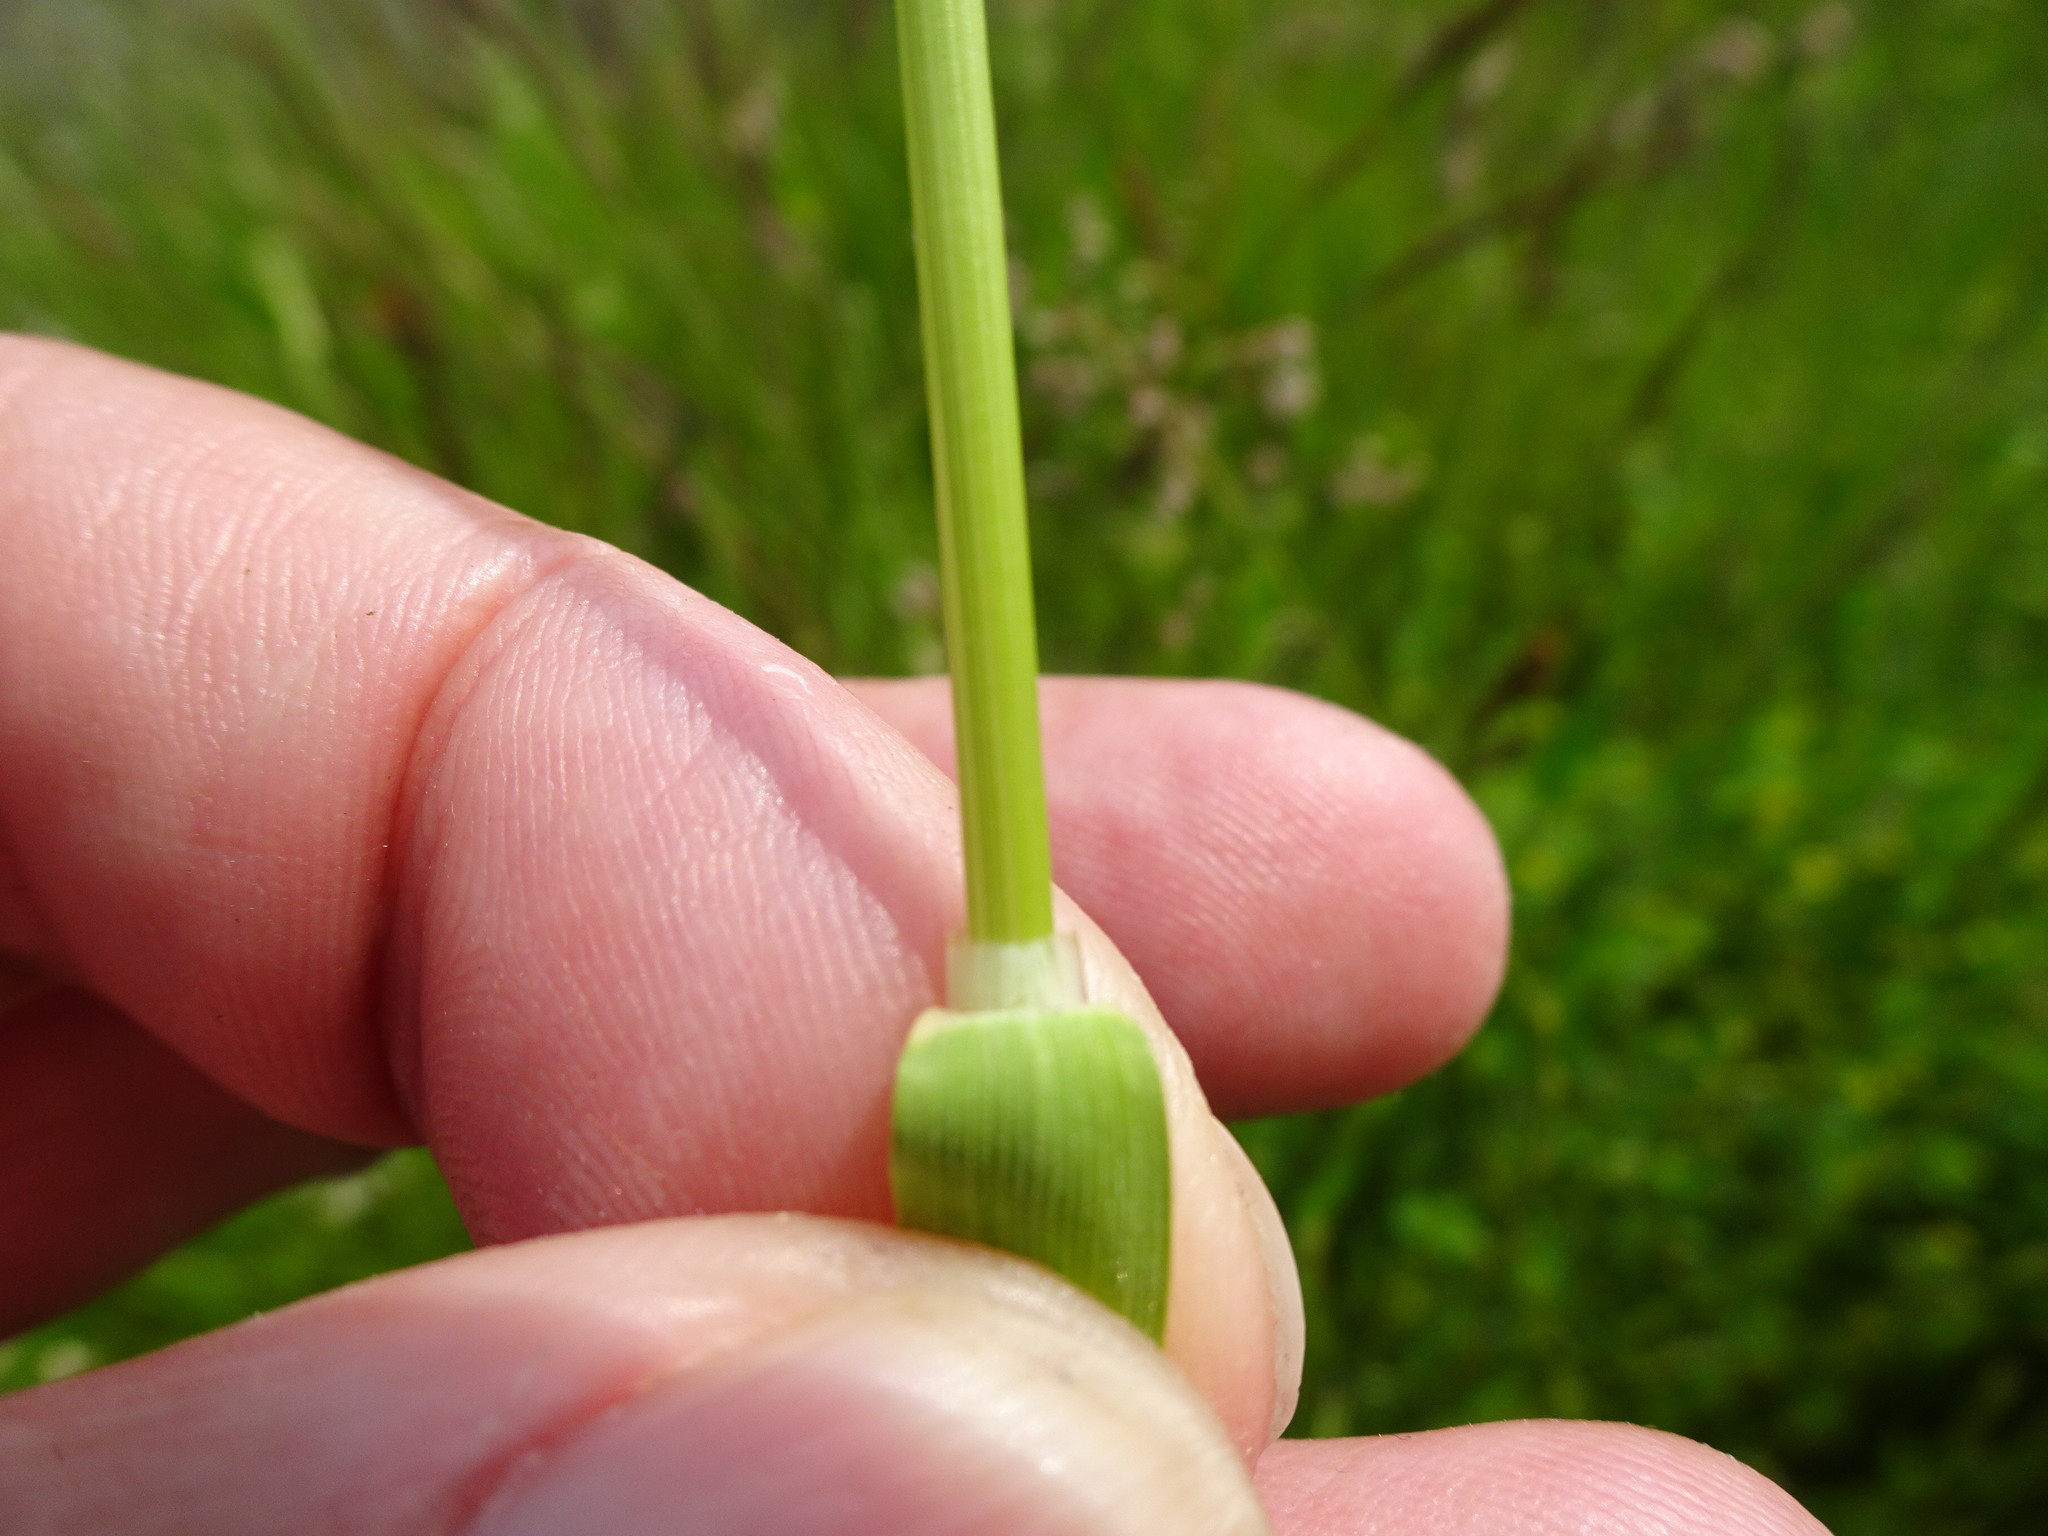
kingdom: Plantae
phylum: Tracheophyta
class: Liliopsida
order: Poales
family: Poaceae
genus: Trisetum
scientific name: Trisetum flavescens
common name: Yellow oat-grass
